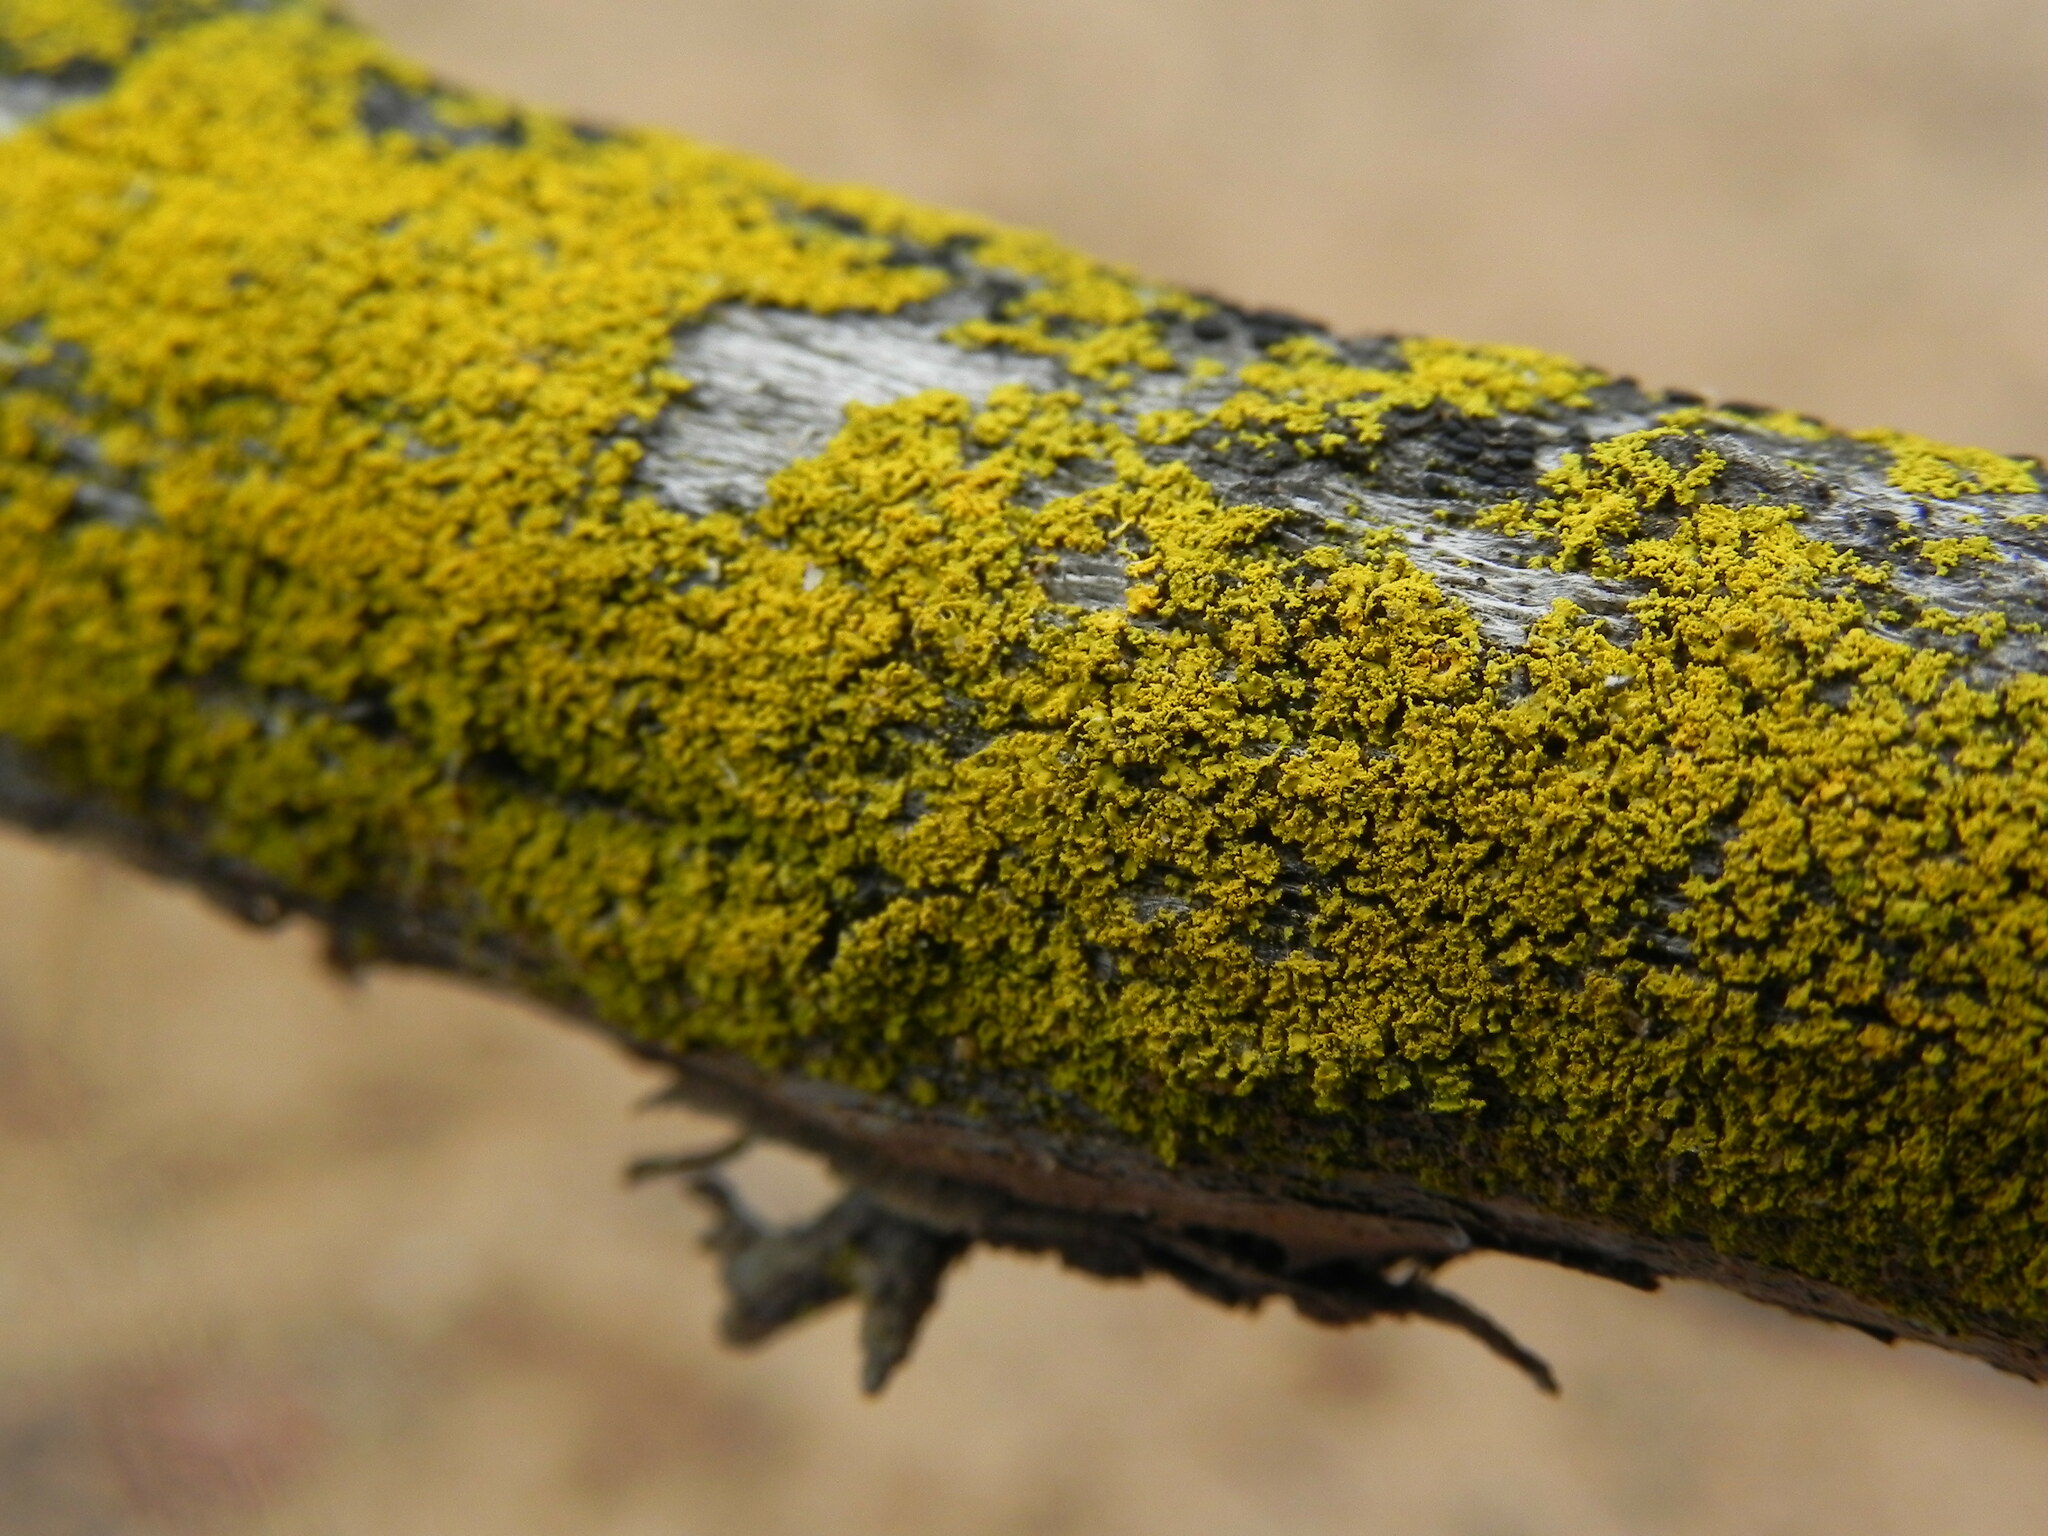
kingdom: Fungi
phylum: Ascomycota
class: Candelariomycetes
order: Candelariales
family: Candelariaceae
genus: Candelaria
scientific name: Candelaria pacifica
